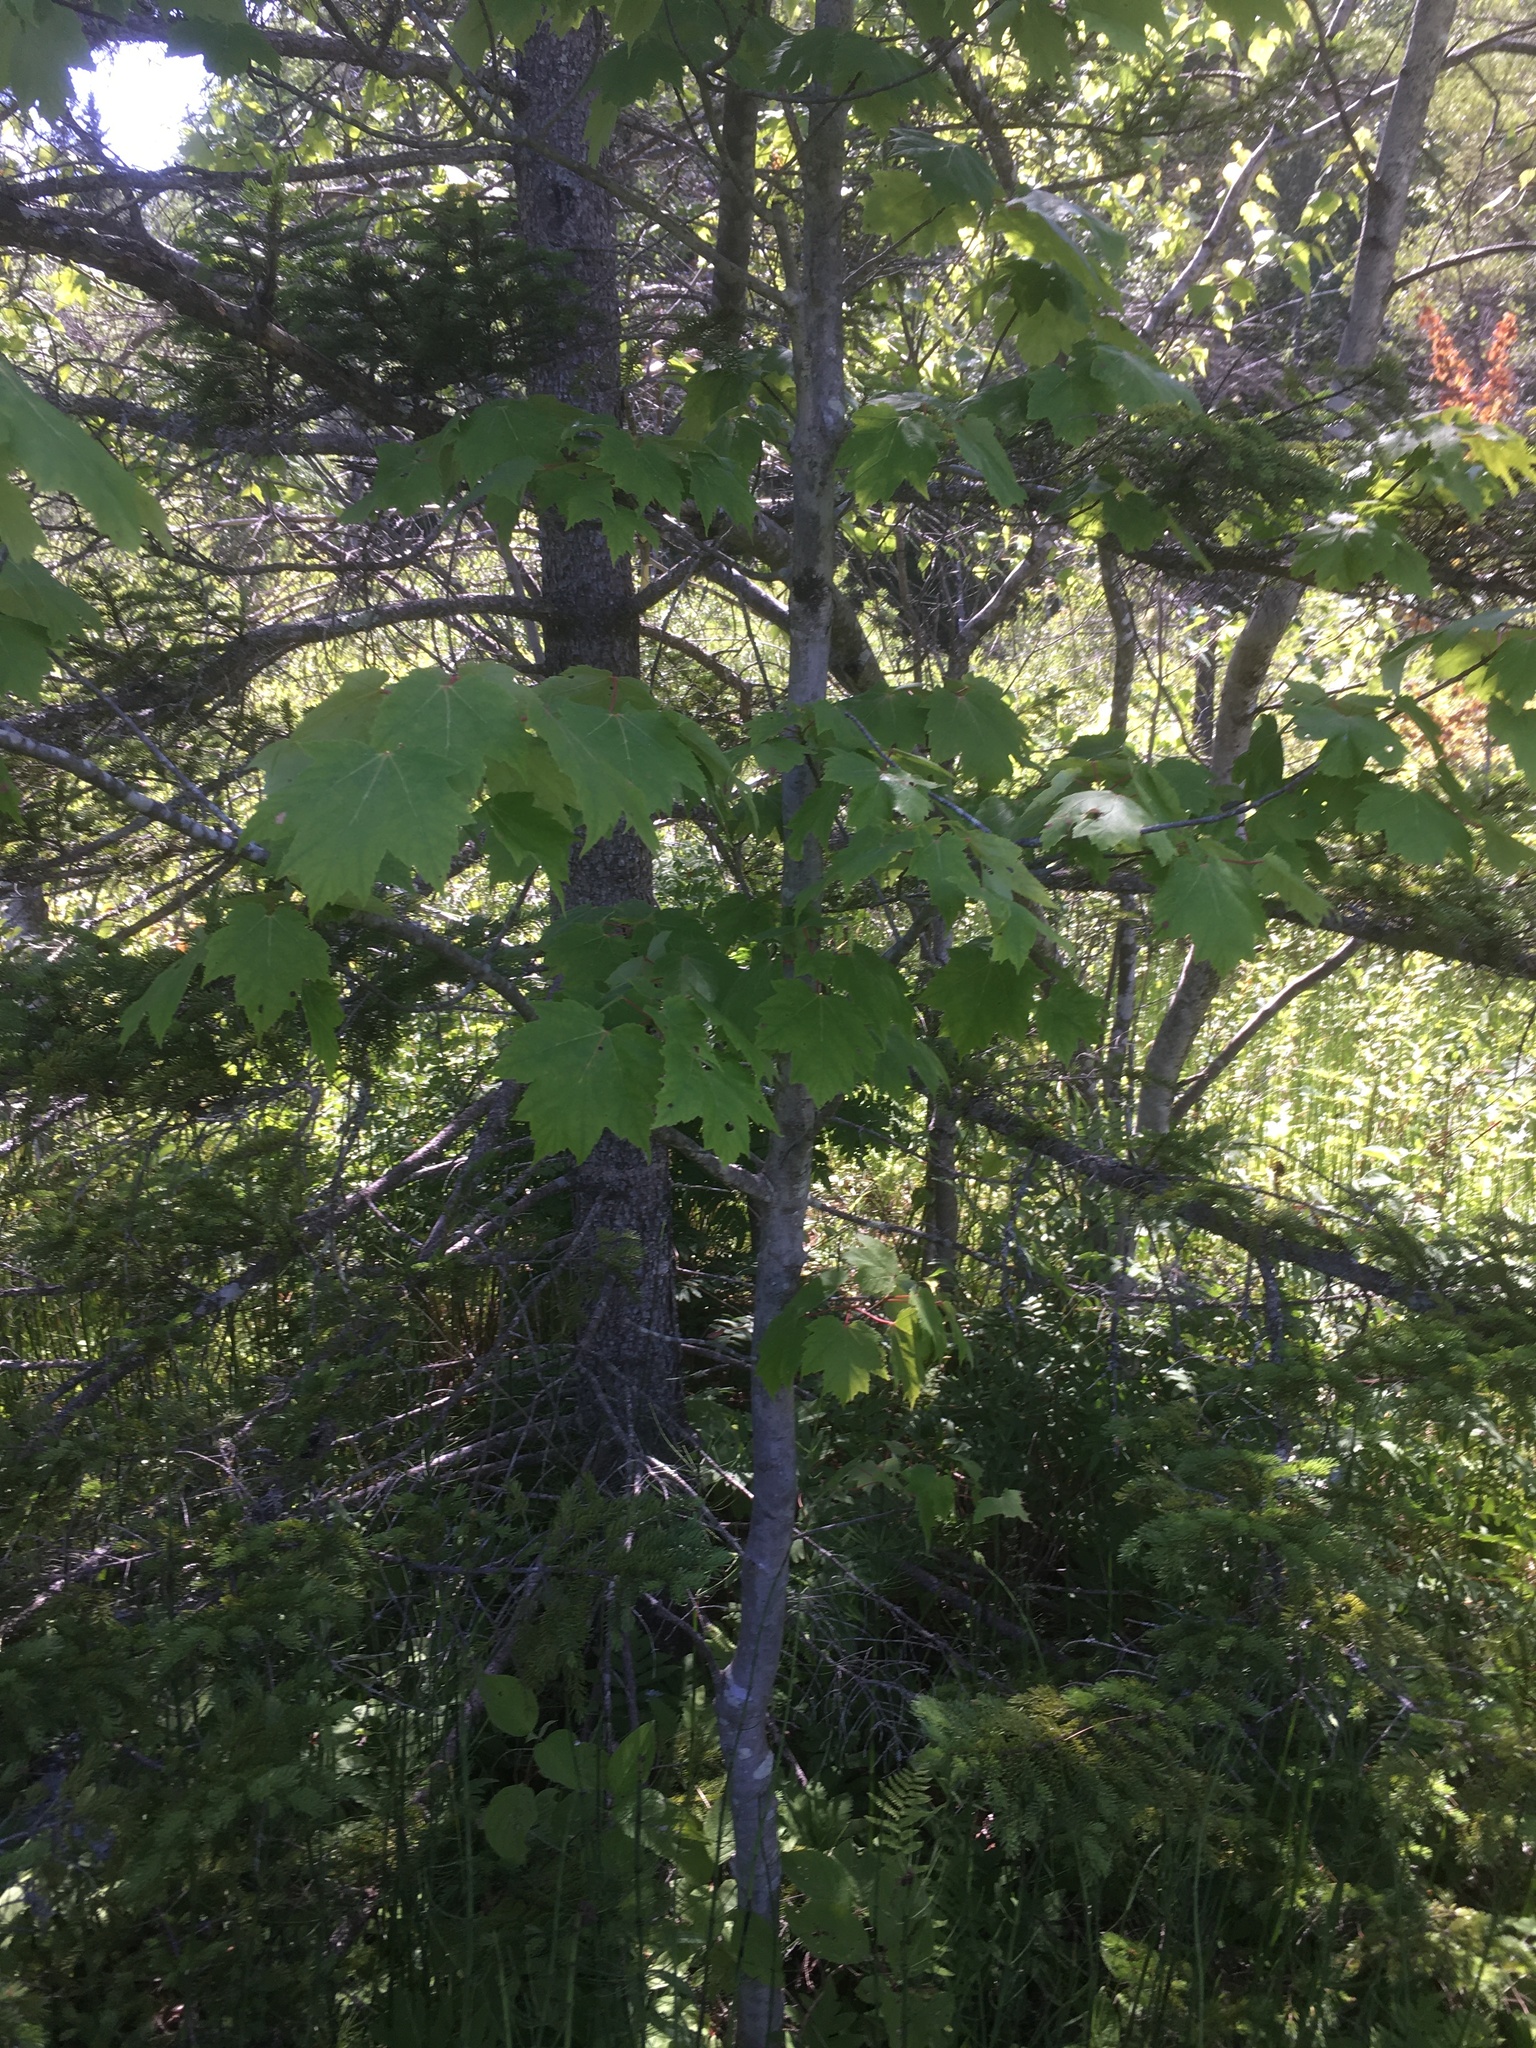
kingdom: Plantae
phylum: Tracheophyta
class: Magnoliopsida
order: Sapindales
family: Sapindaceae
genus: Acer
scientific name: Acer rubrum
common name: Red maple
